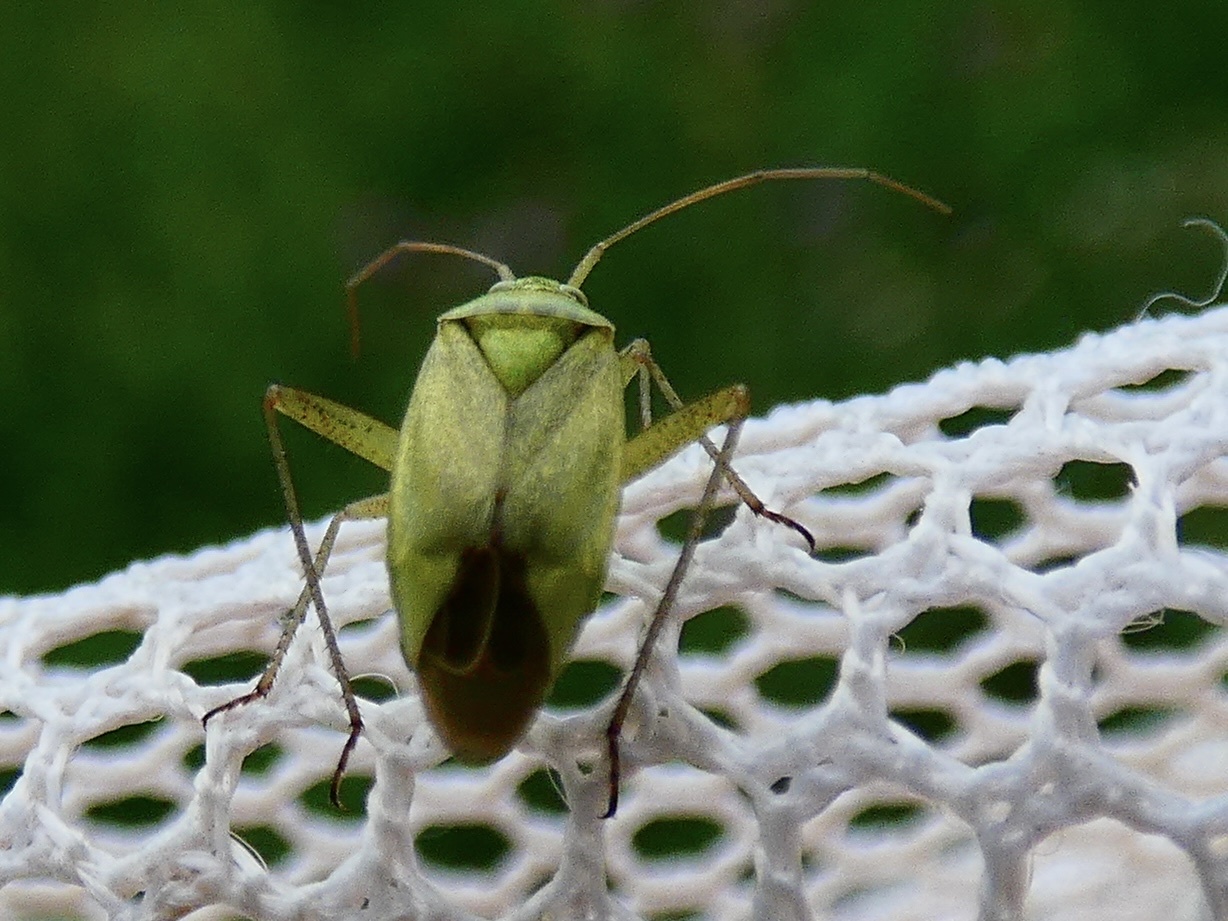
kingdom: Animalia
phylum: Arthropoda
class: Insecta
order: Hemiptera
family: Miridae
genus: Closterotomus
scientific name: Closterotomus norvegicus
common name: Plant bug
